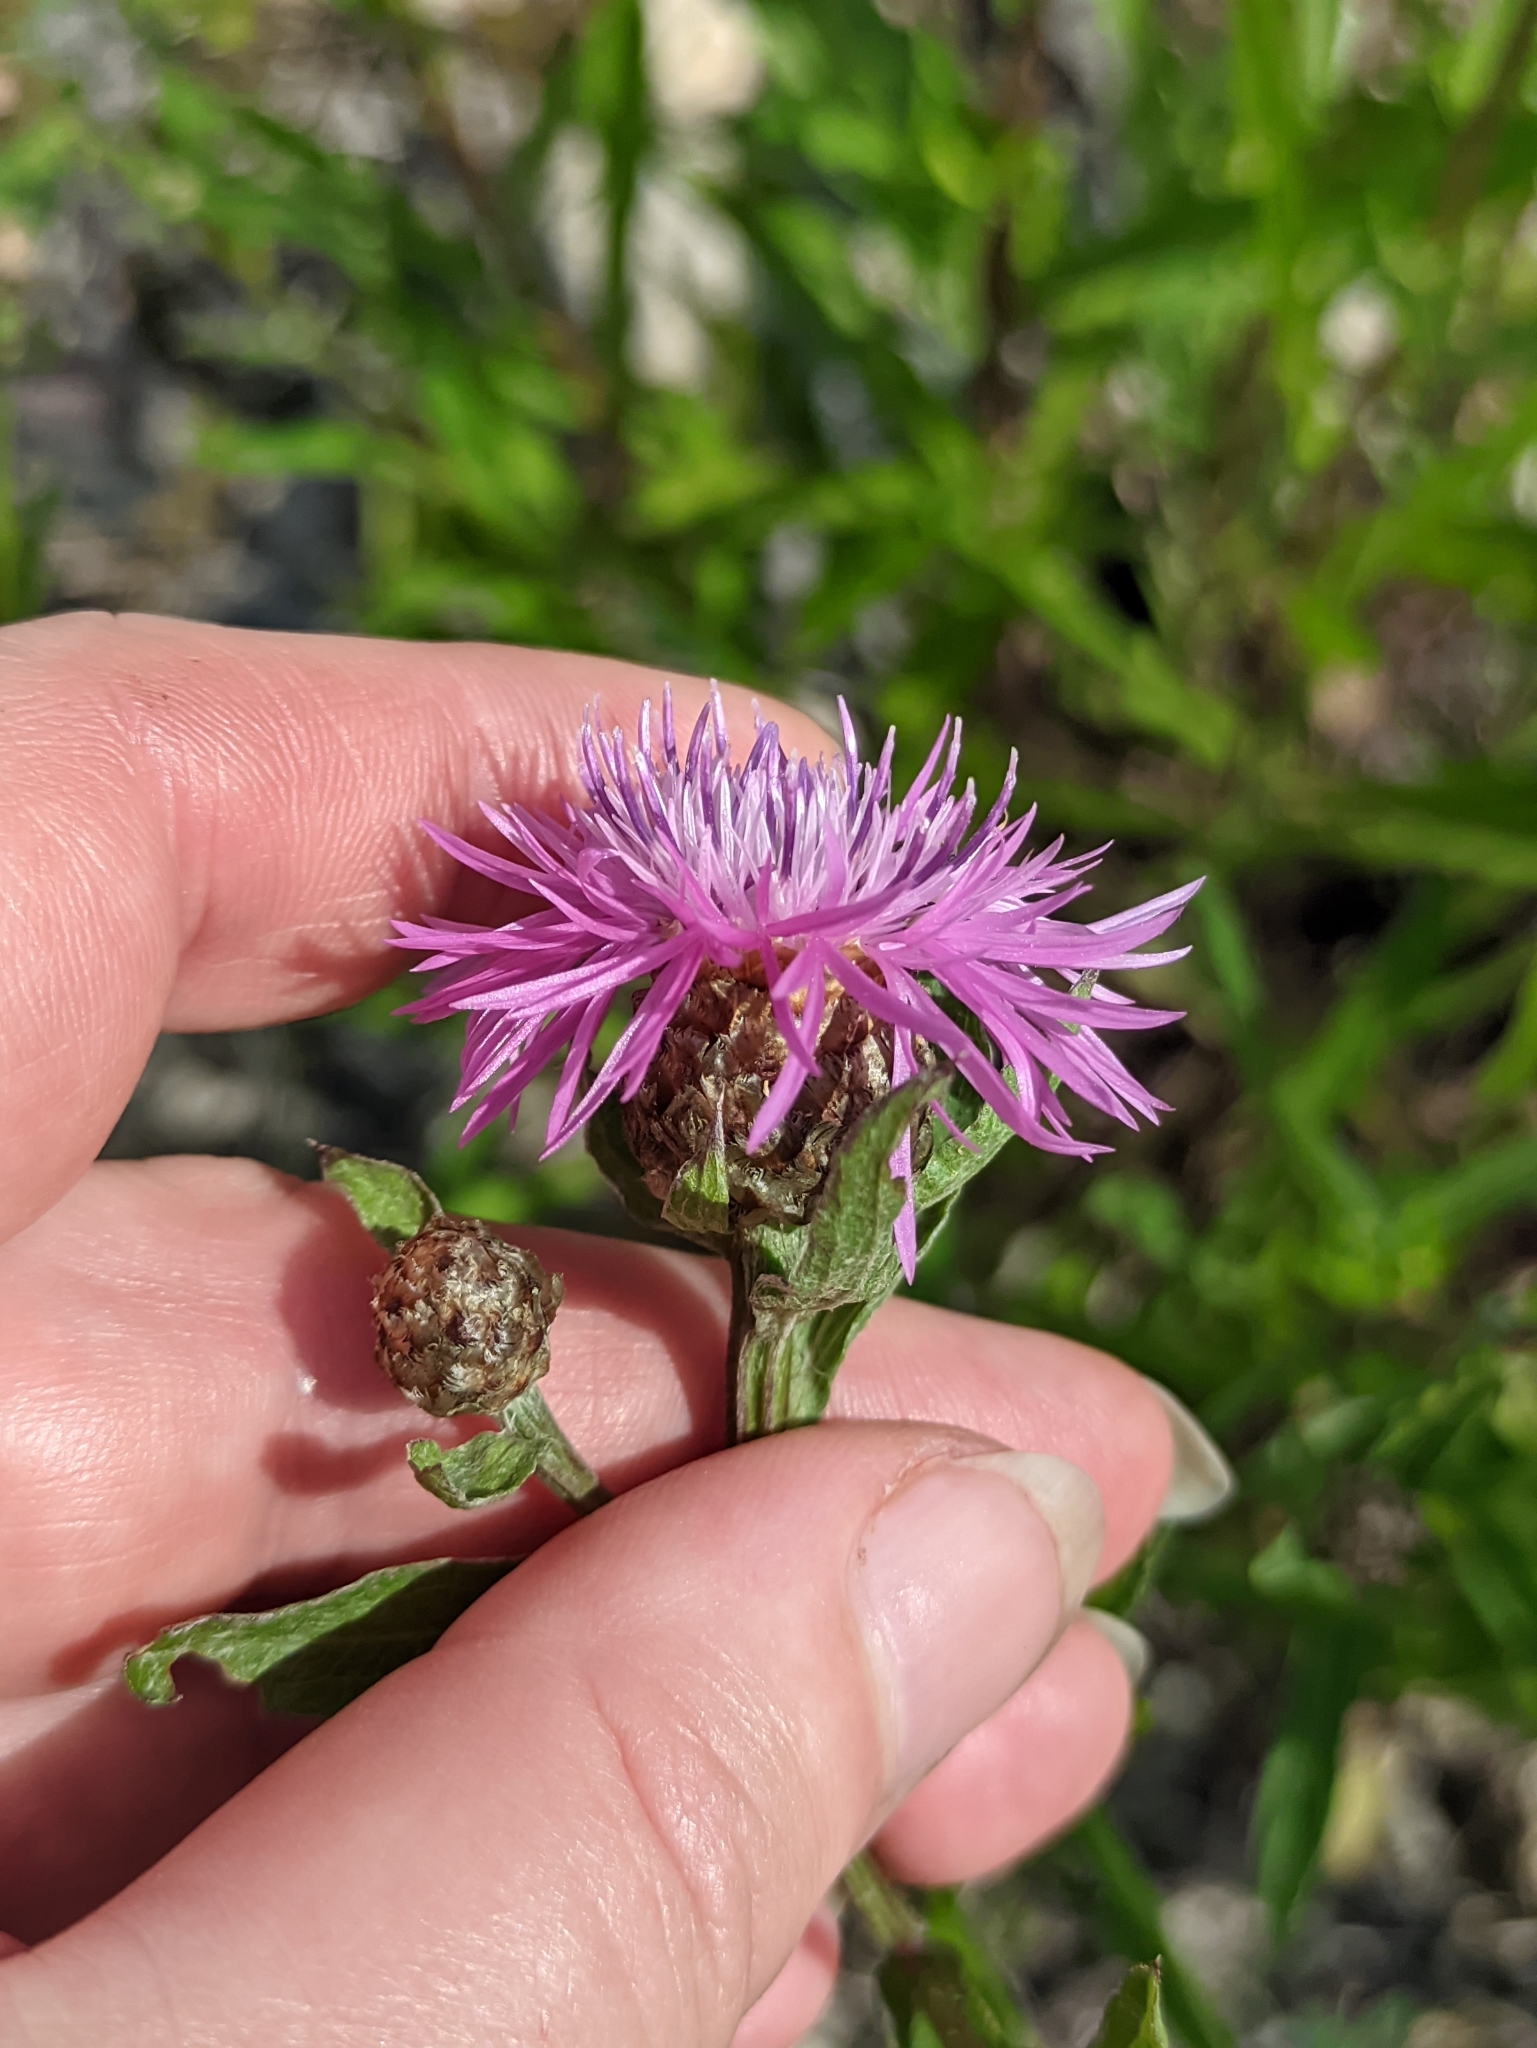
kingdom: Plantae
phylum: Tracheophyta
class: Magnoliopsida
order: Asterales
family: Asteraceae
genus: Centaurea
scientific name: Centaurea jacea
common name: Brown knapweed
